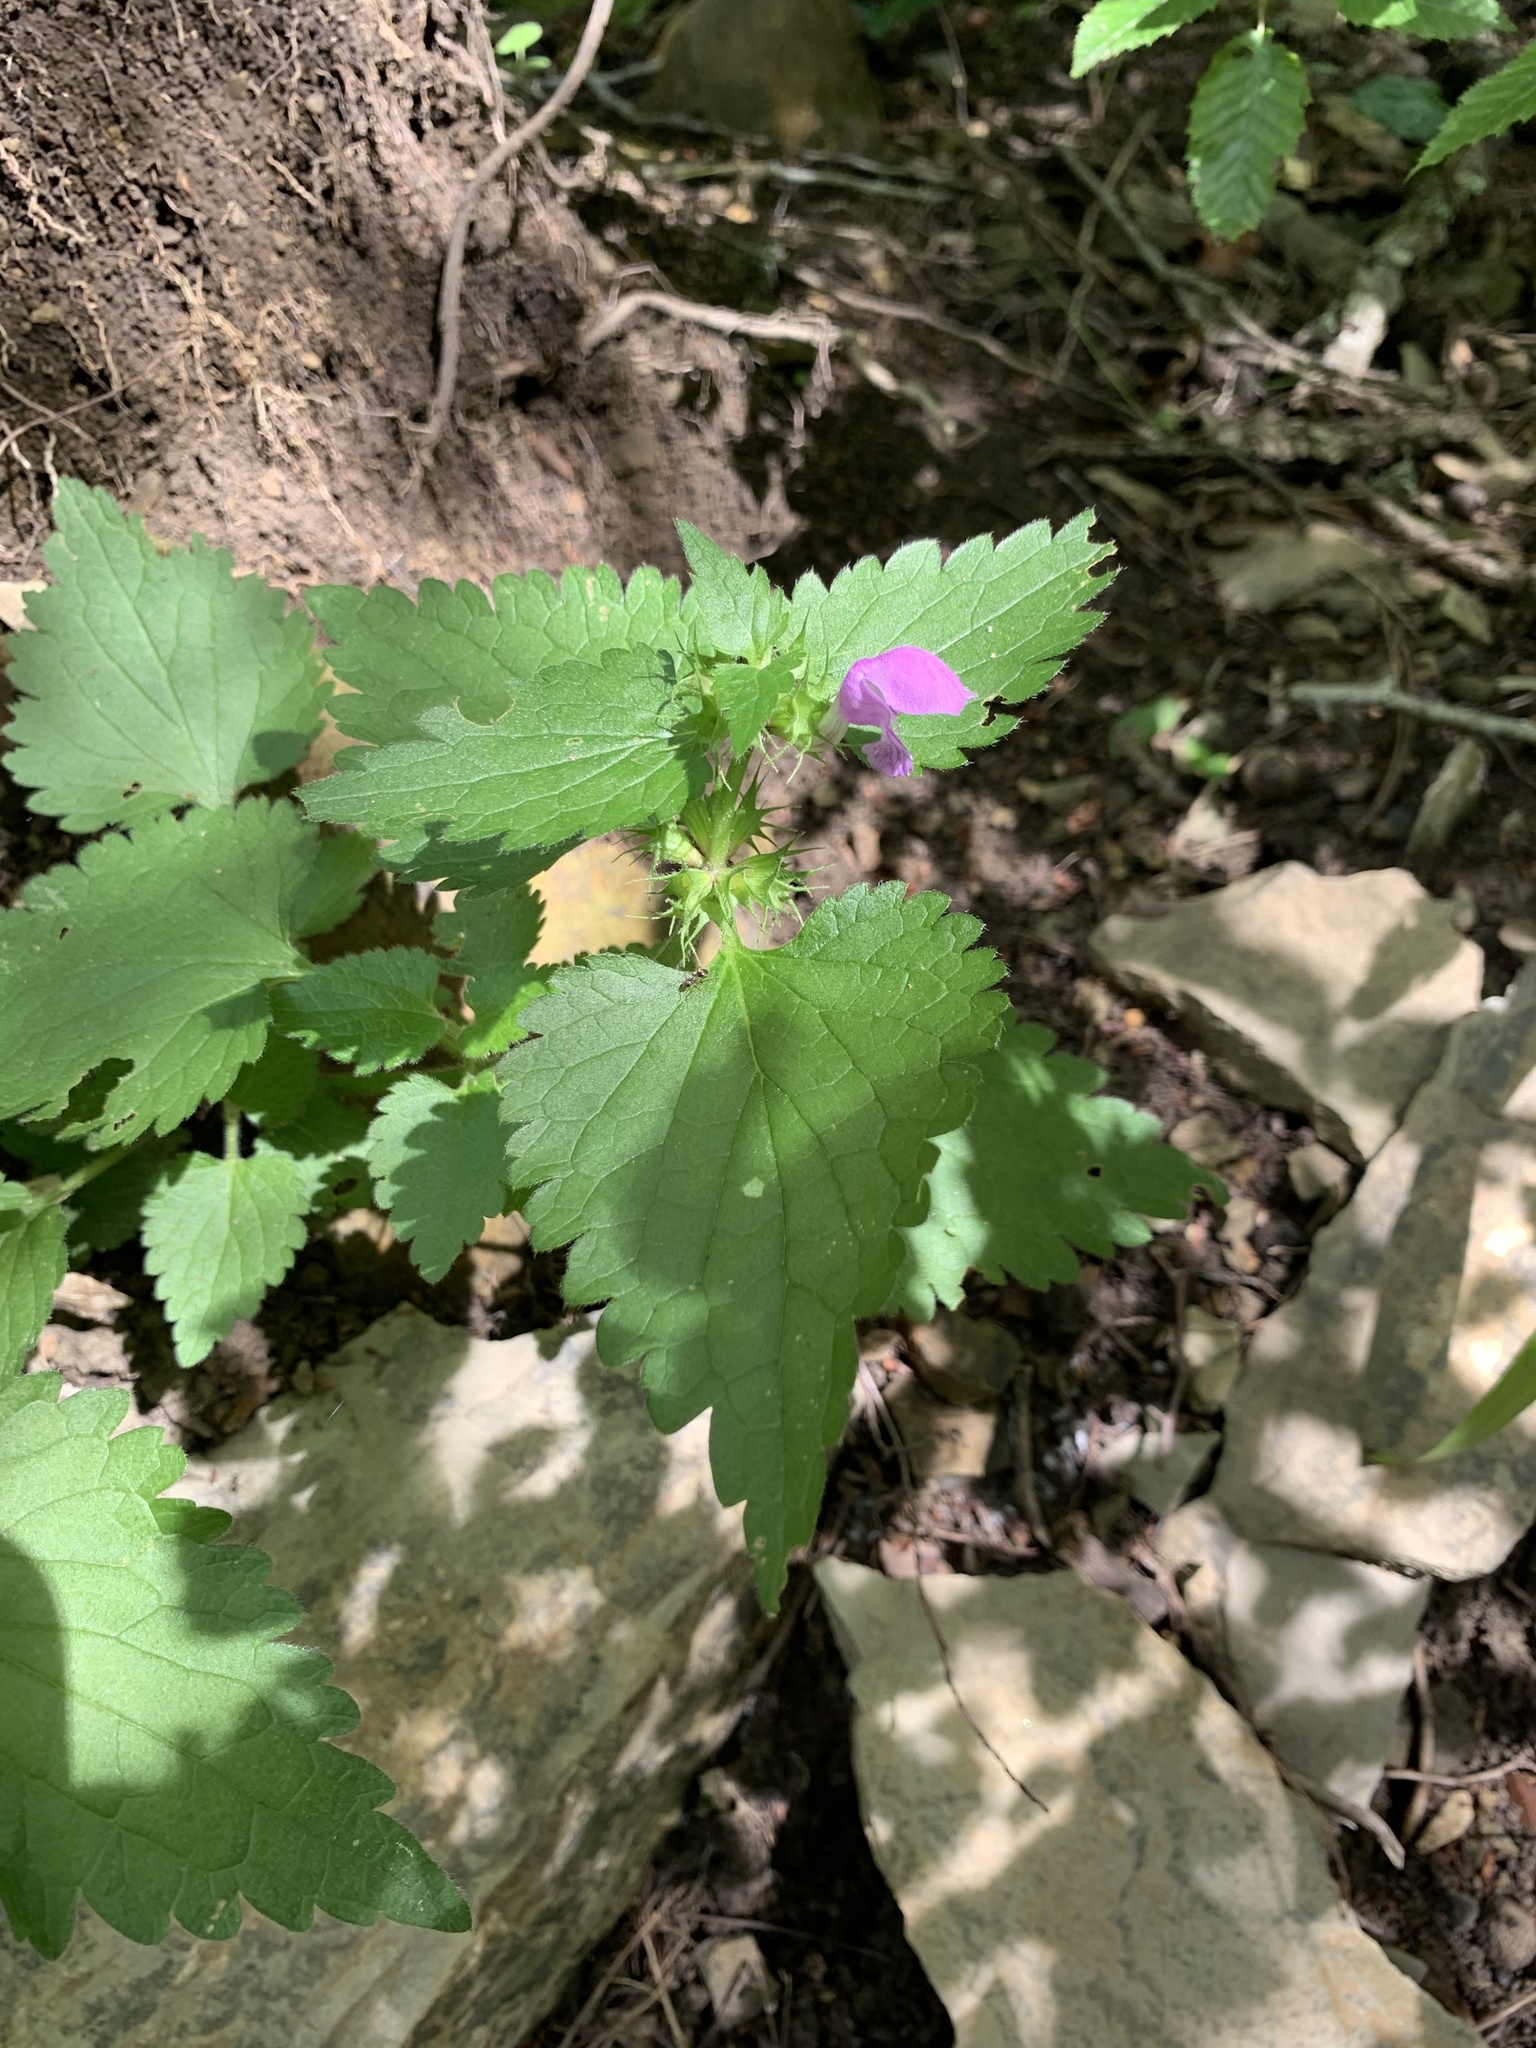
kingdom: Plantae
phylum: Tracheophyta
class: Magnoliopsida
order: Lamiales
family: Lamiaceae
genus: Lamium
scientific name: Lamium maculatum
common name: Spotted dead-nettle
